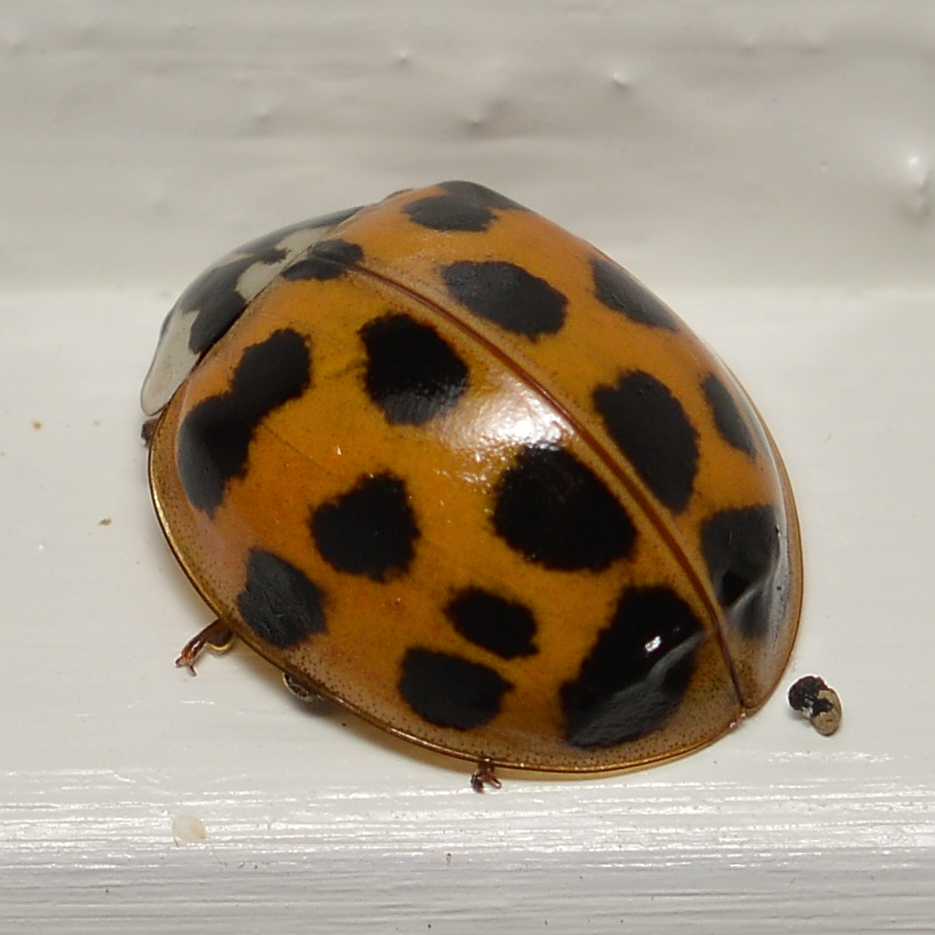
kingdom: Animalia
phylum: Arthropoda
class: Insecta
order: Coleoptera
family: Coccinellidae
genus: Harmonia
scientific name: Harmonia axyridis
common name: Harlequin ladybird
